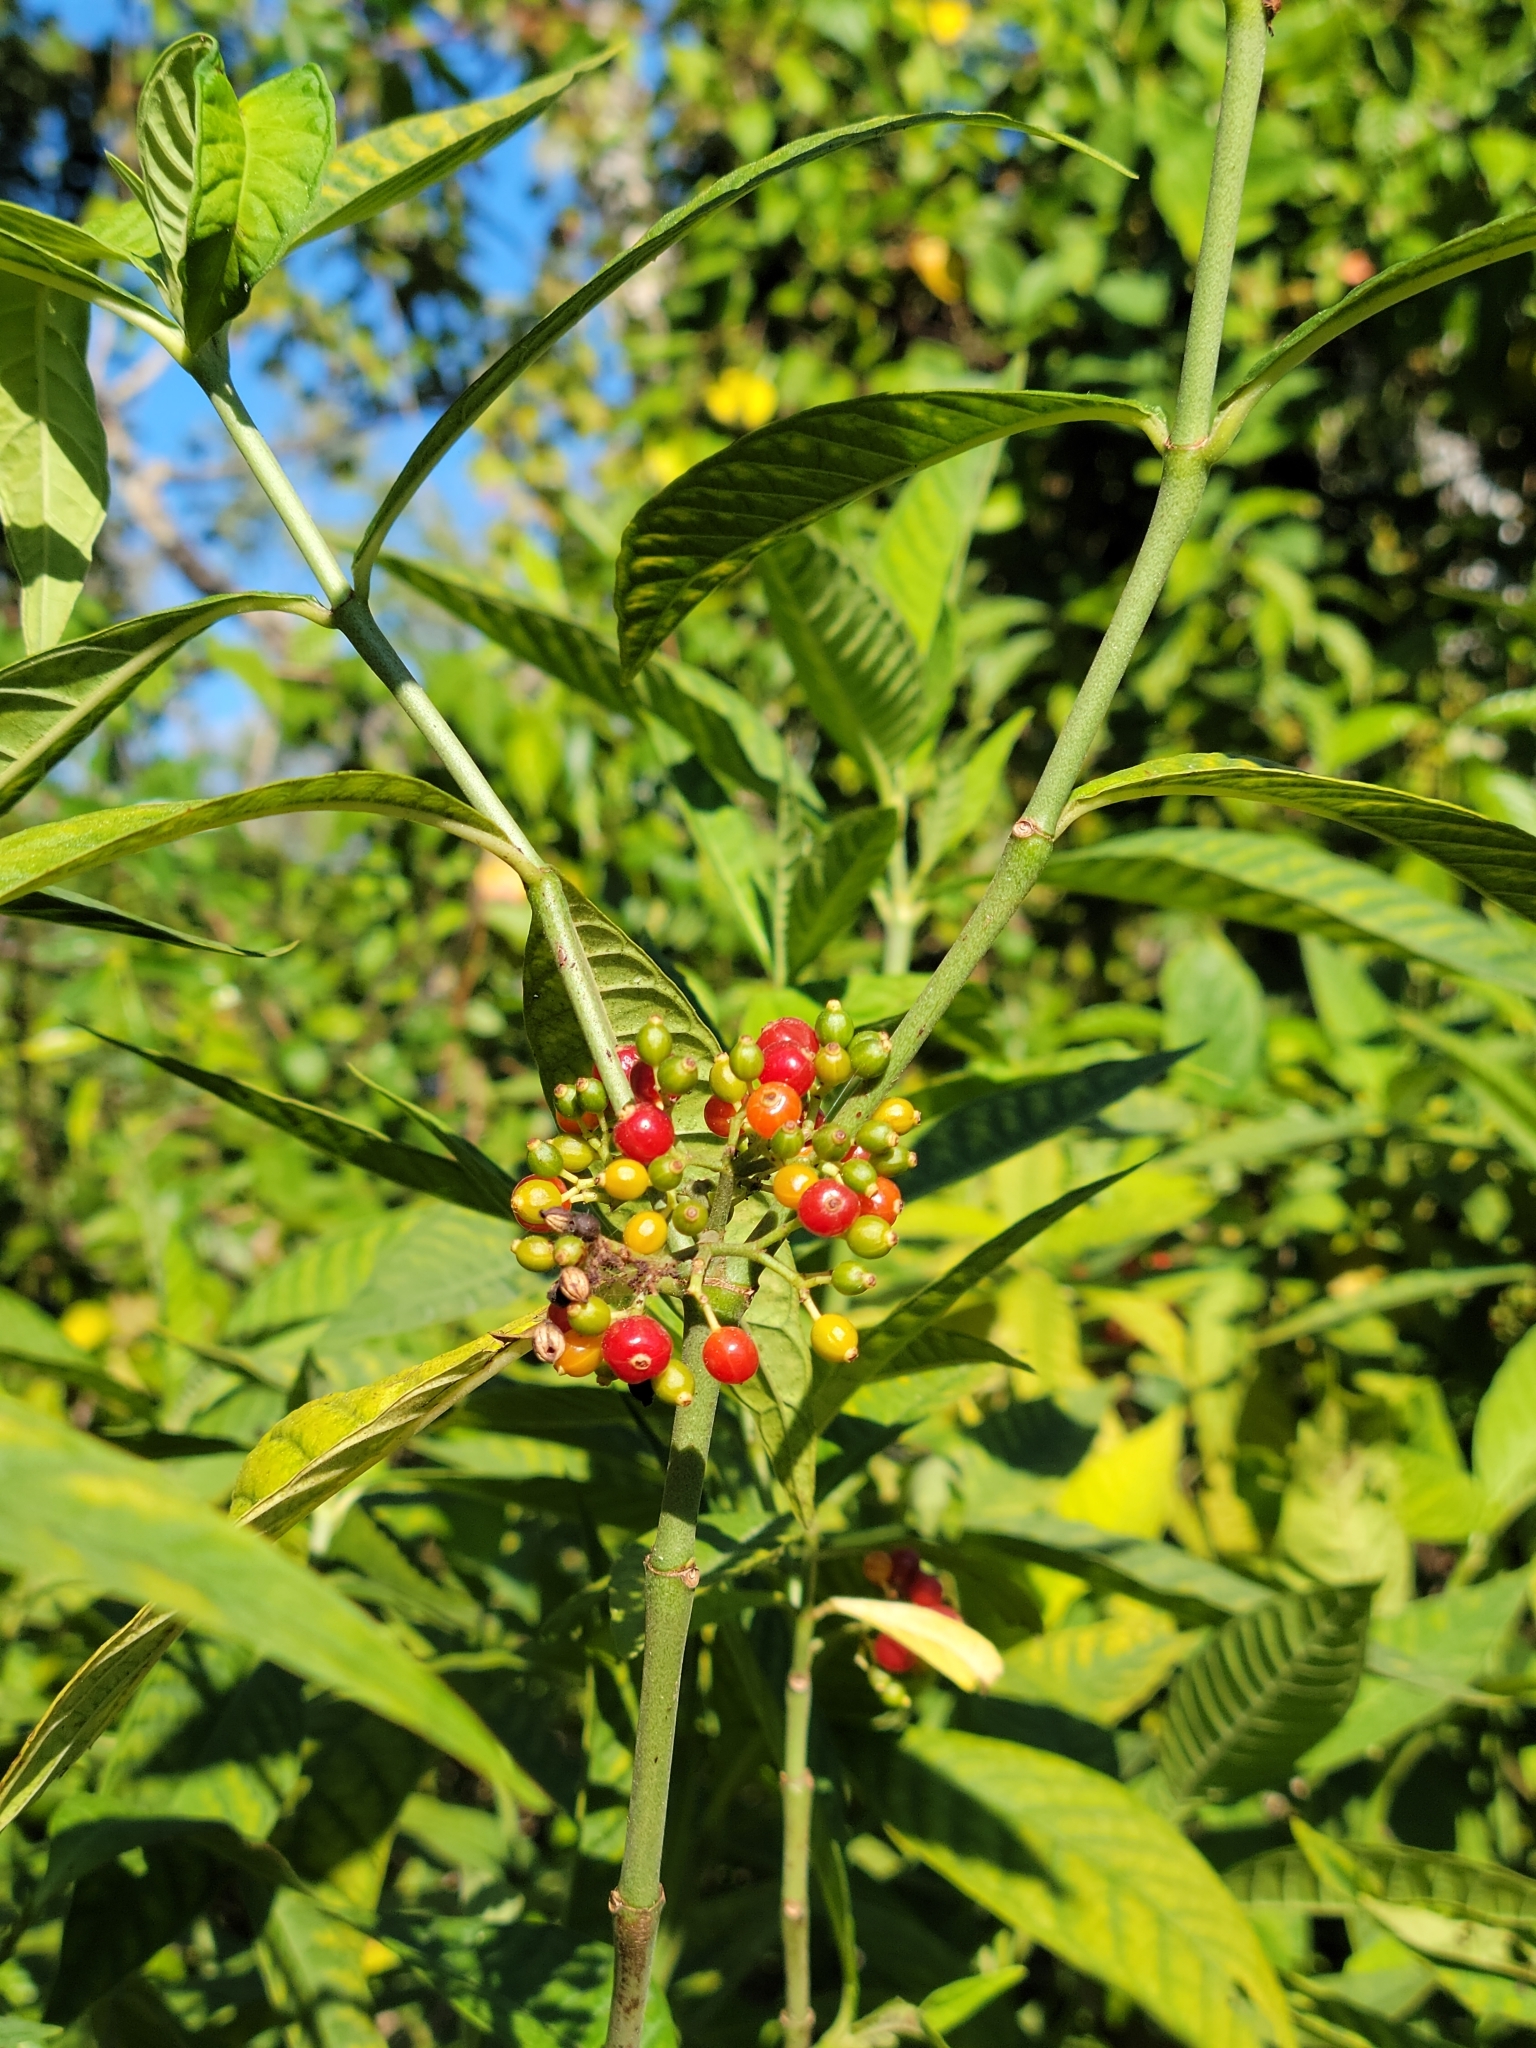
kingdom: Plantae
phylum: Tracheophyta
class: Magnoliopsida
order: Gentianales
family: Rubiaceae
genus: Psychotria
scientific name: Psychotria tenuifolia
